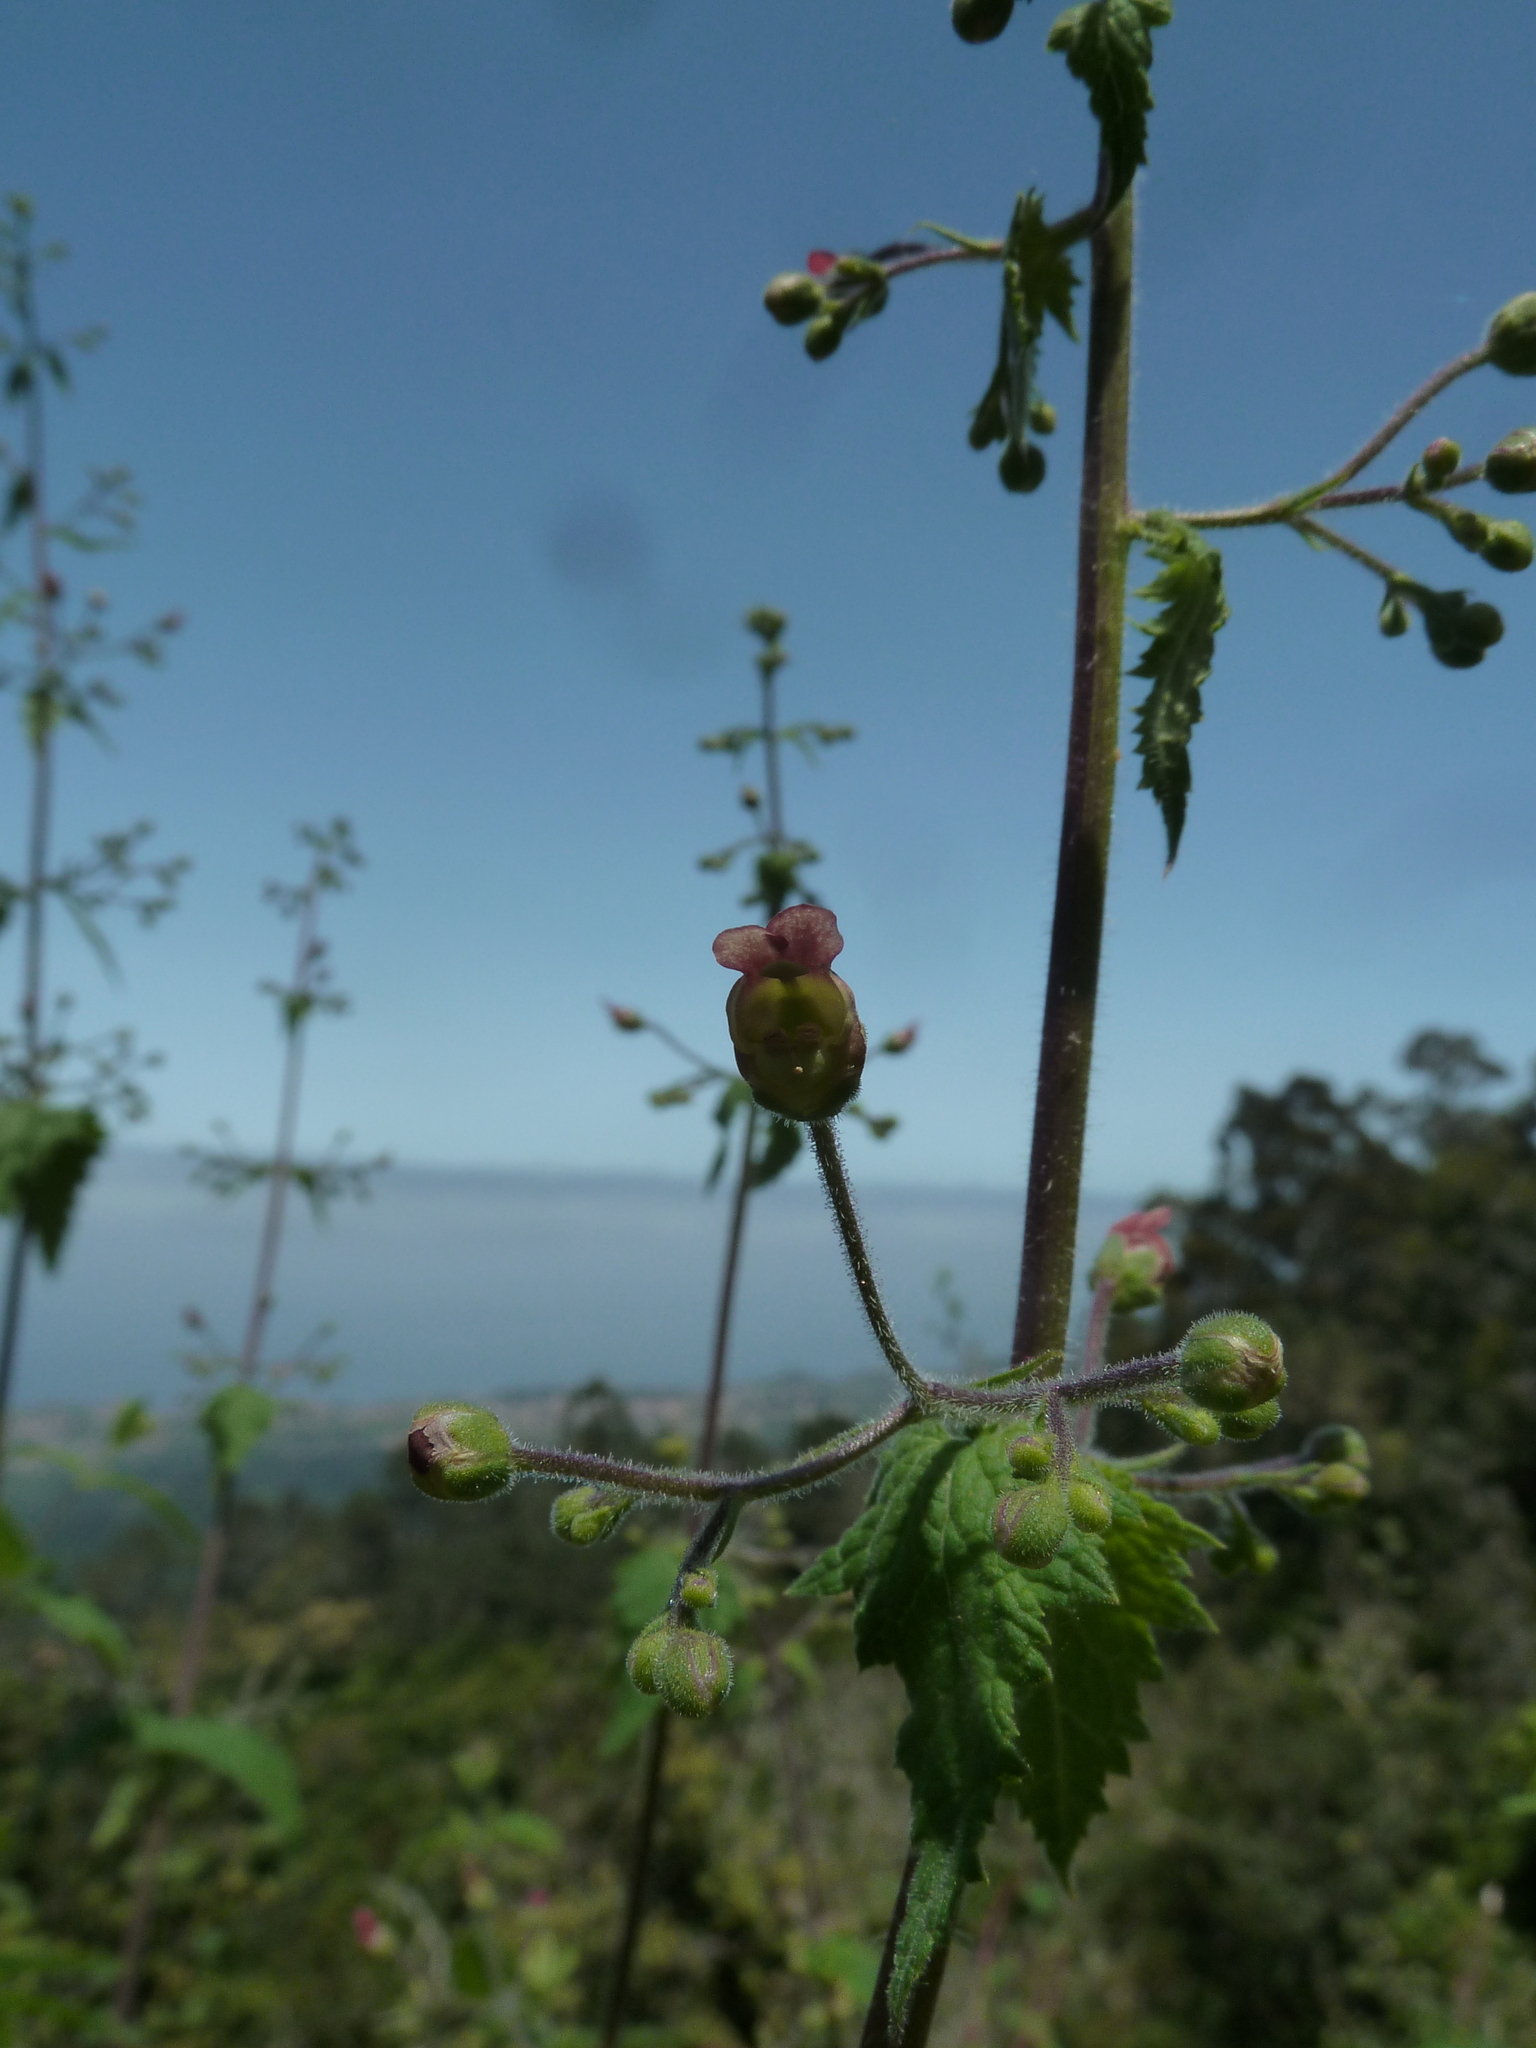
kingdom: Plantae
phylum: Tracheophyta
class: Magnoliopsida
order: Lamiales
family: Scrophulariaceae
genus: Scrophularia
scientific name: Scrophularia scorodonia
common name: Balm-leaved figwort
